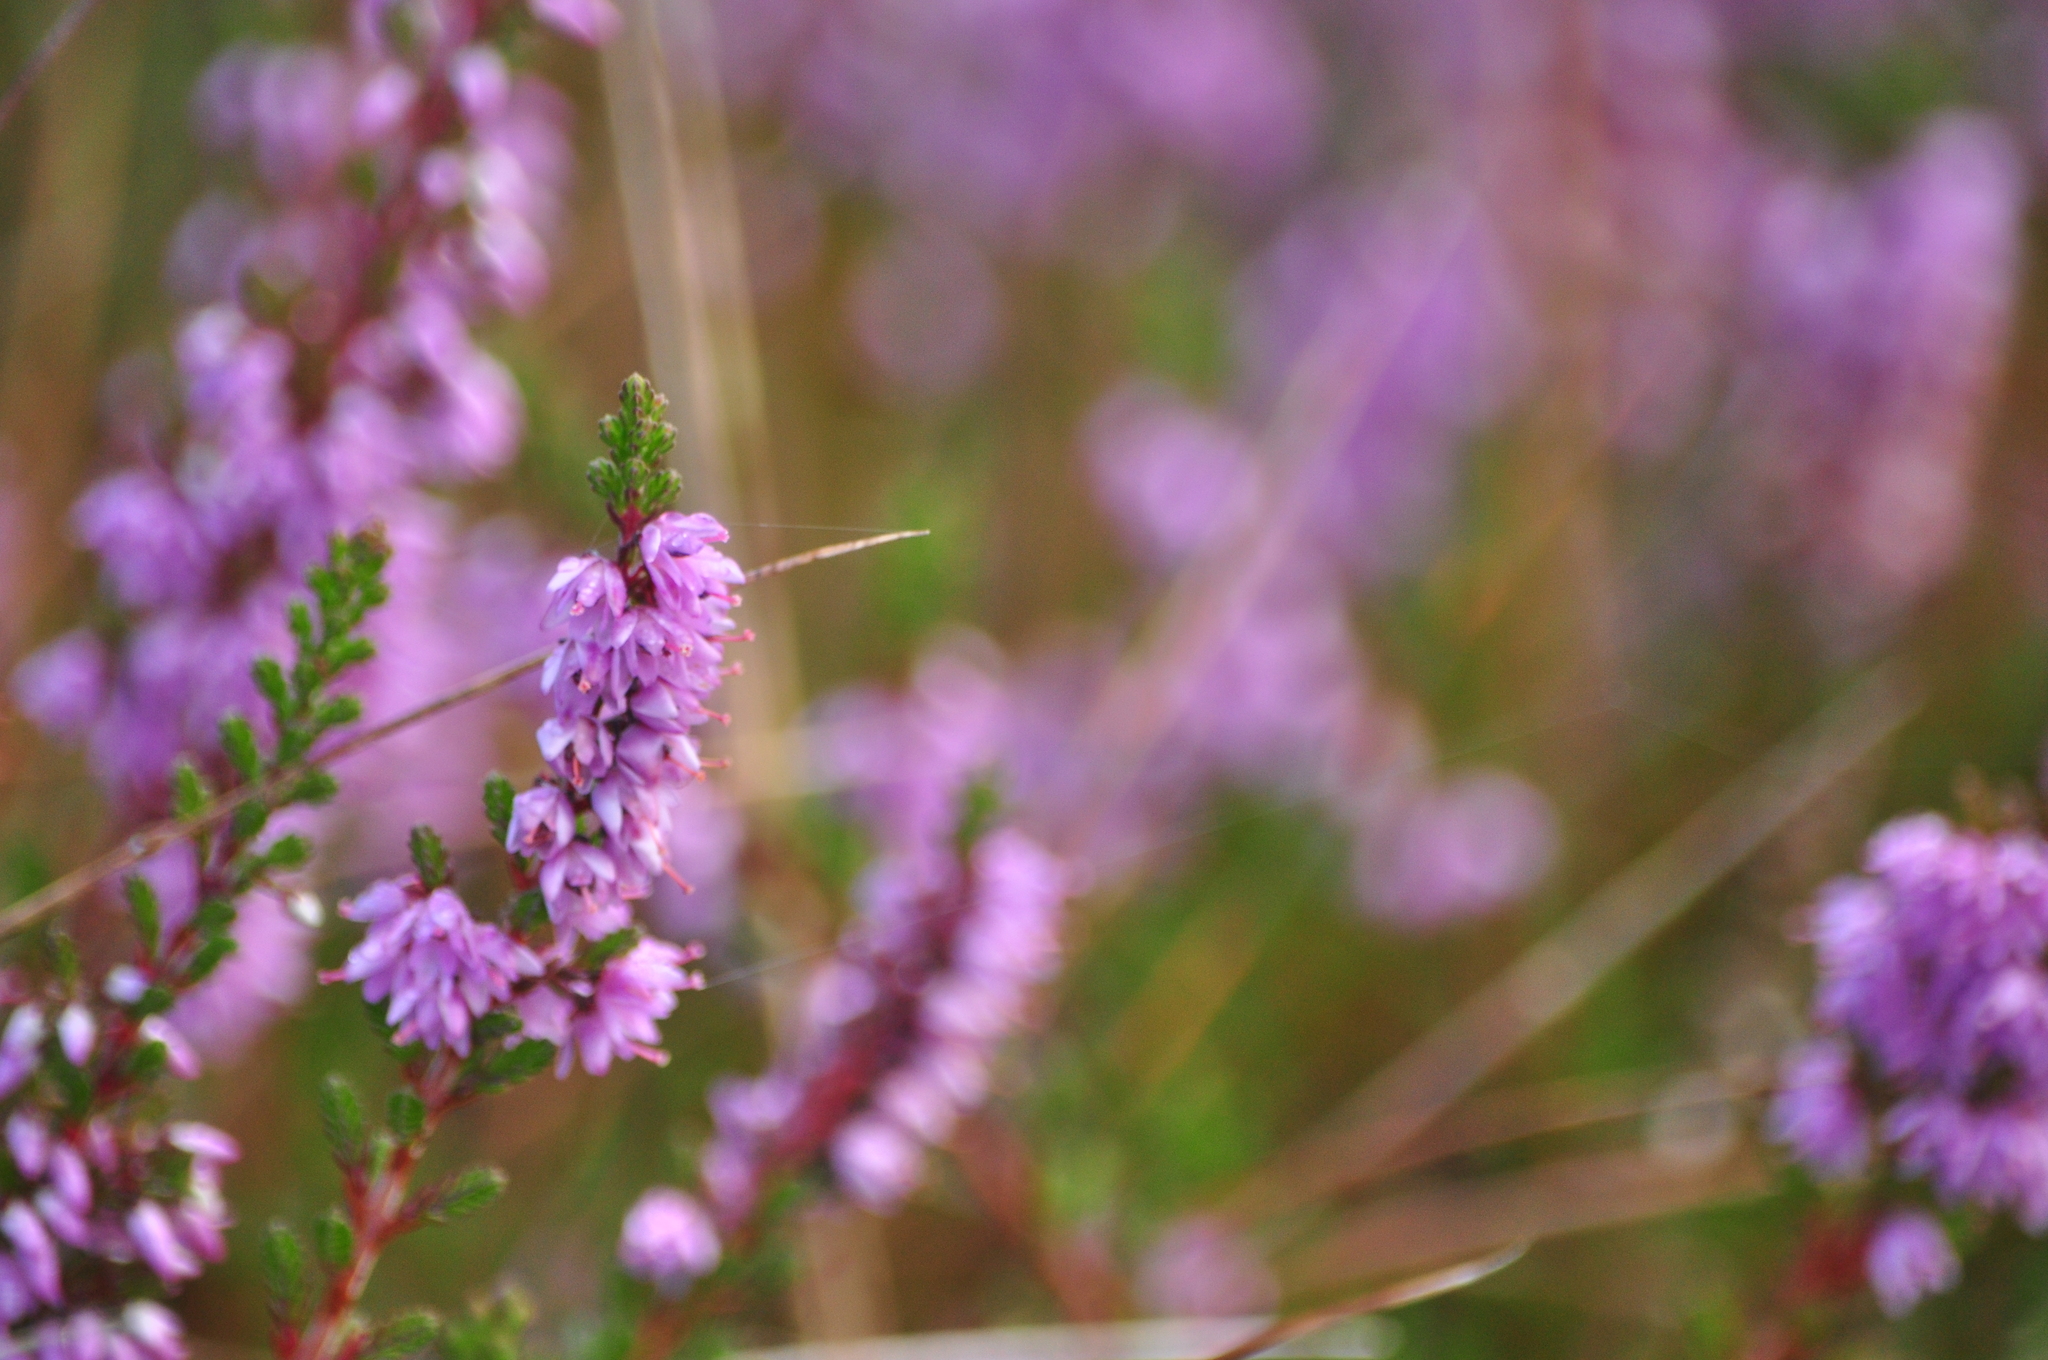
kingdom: Plantae
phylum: Tracheophyta
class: Magnoliopsida
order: Ericales
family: Ericaceae
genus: Calluna
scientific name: Calluna vulgaris
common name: Heather
